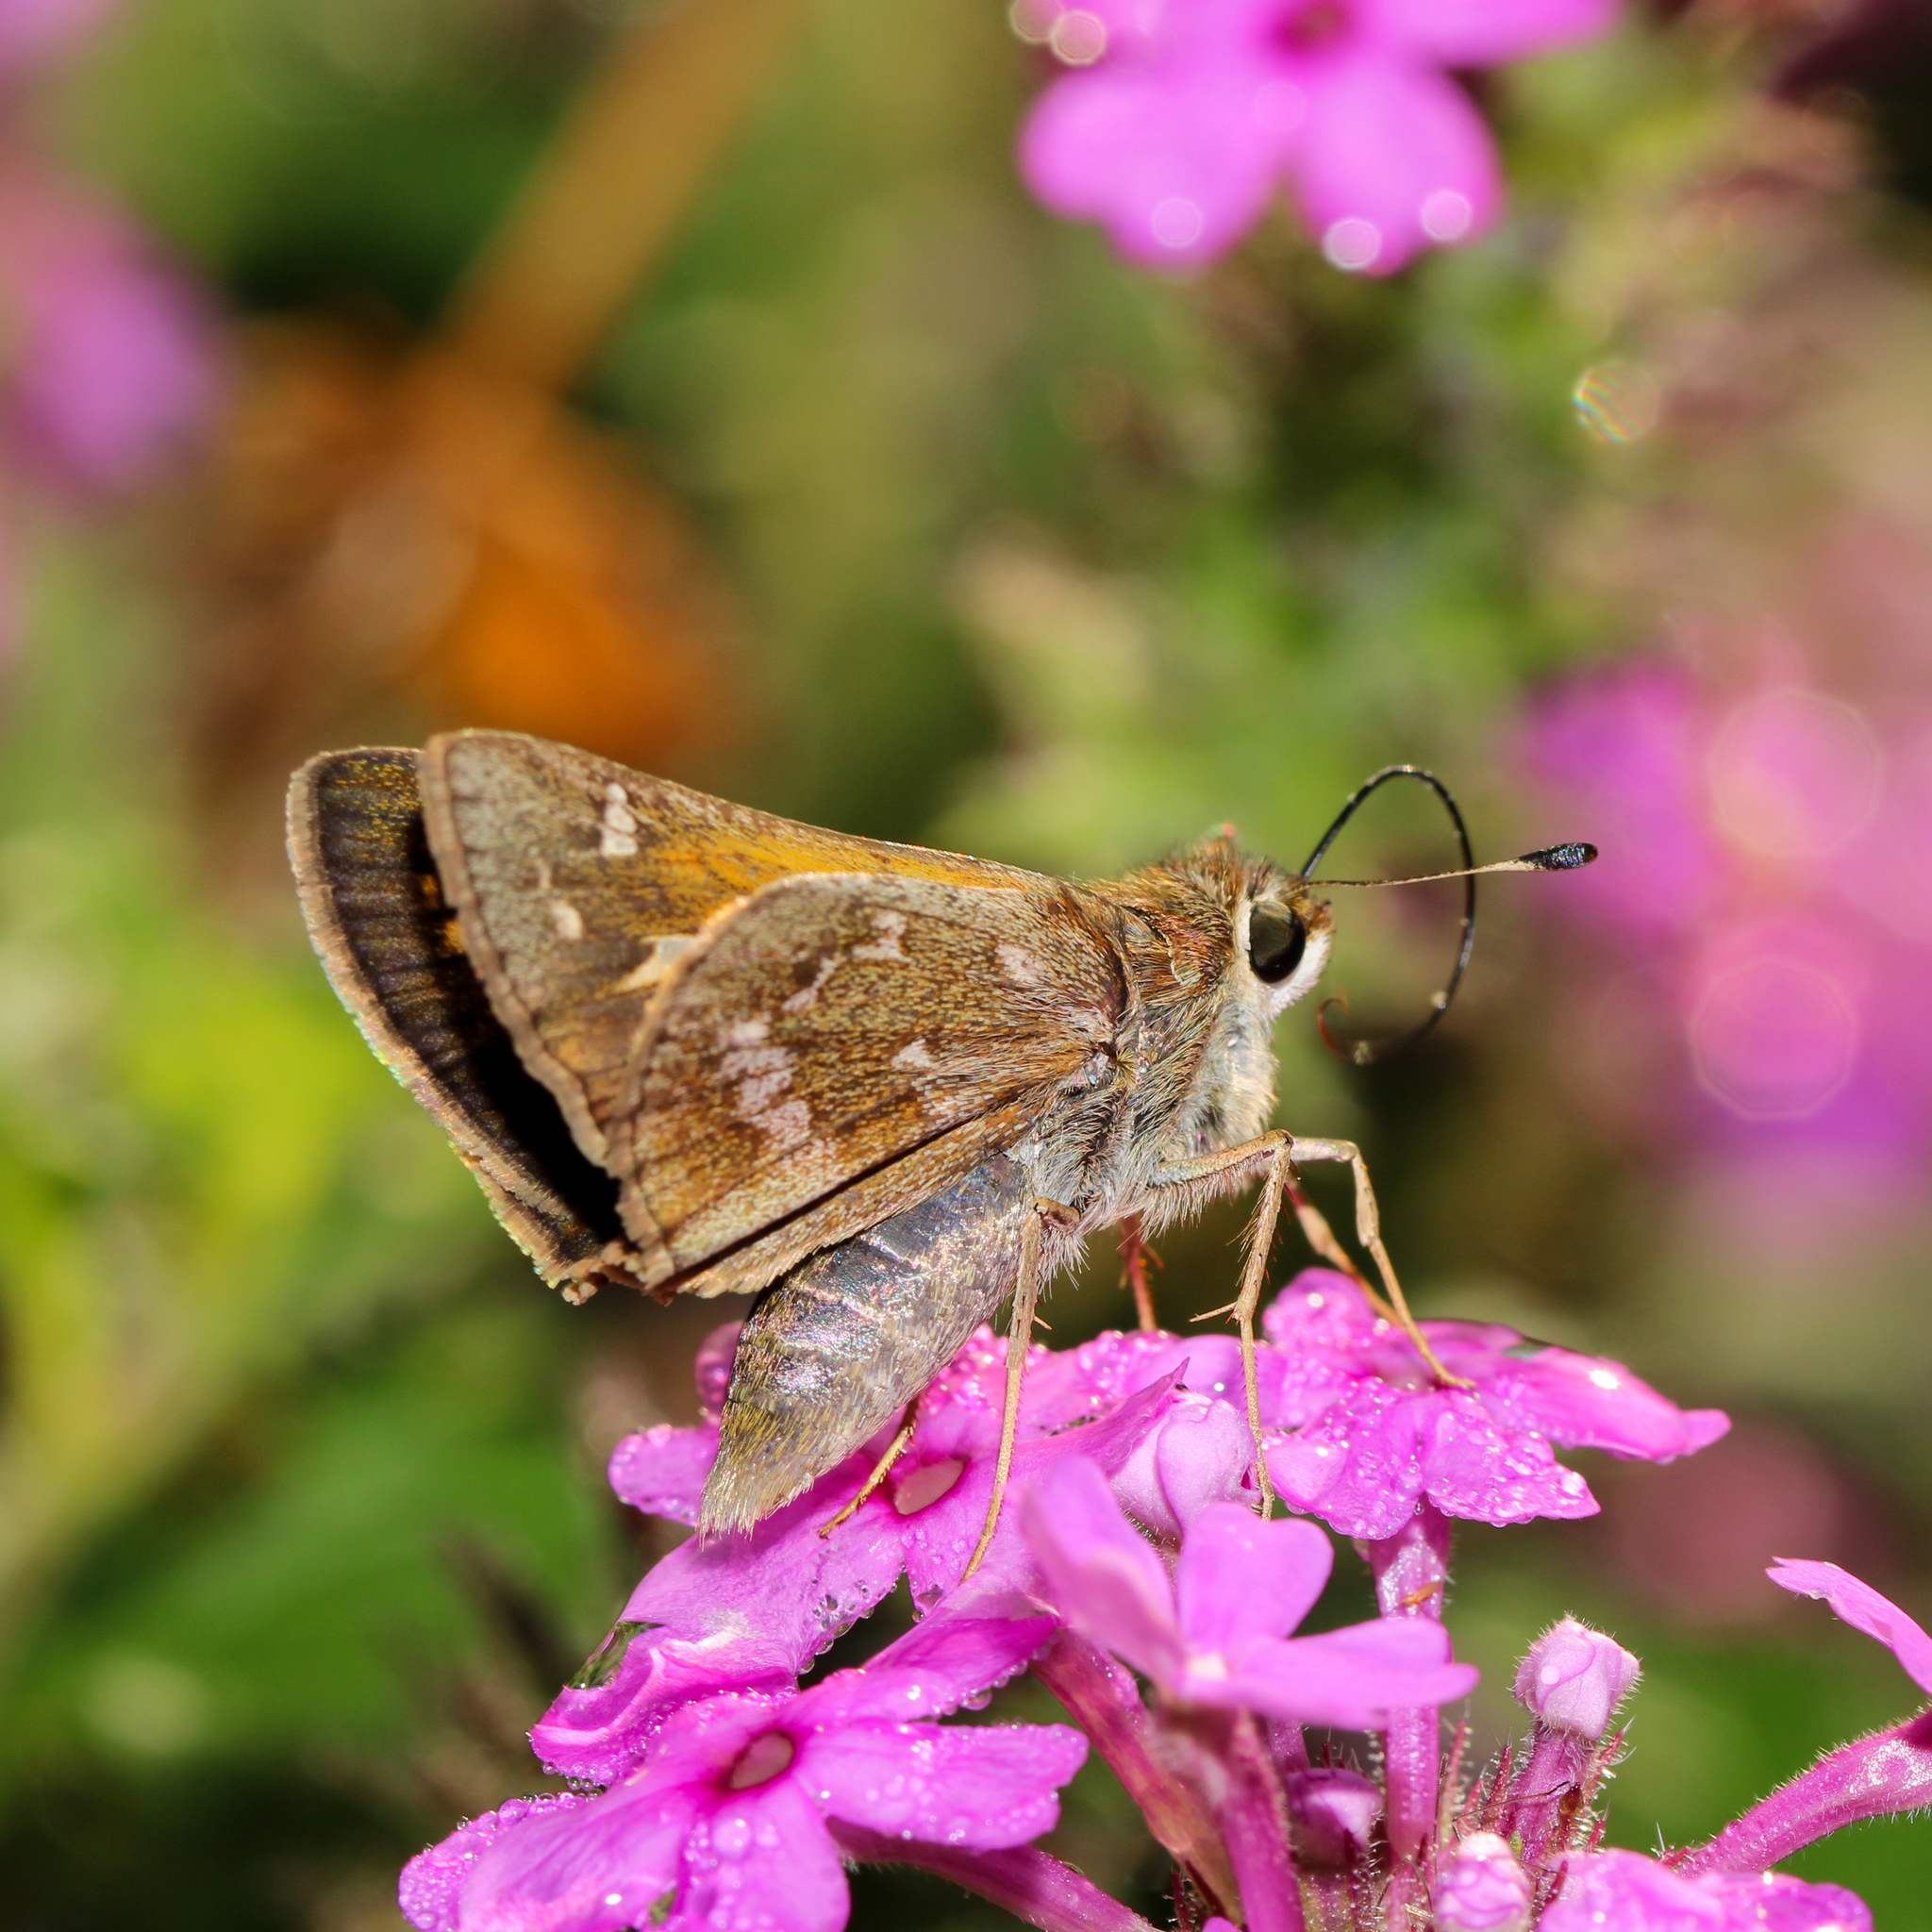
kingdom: Animalia
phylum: Arthropoda
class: Insecta
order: Lepidoptera
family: Hesperiidae
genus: Atalopedes
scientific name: Atalopedes
